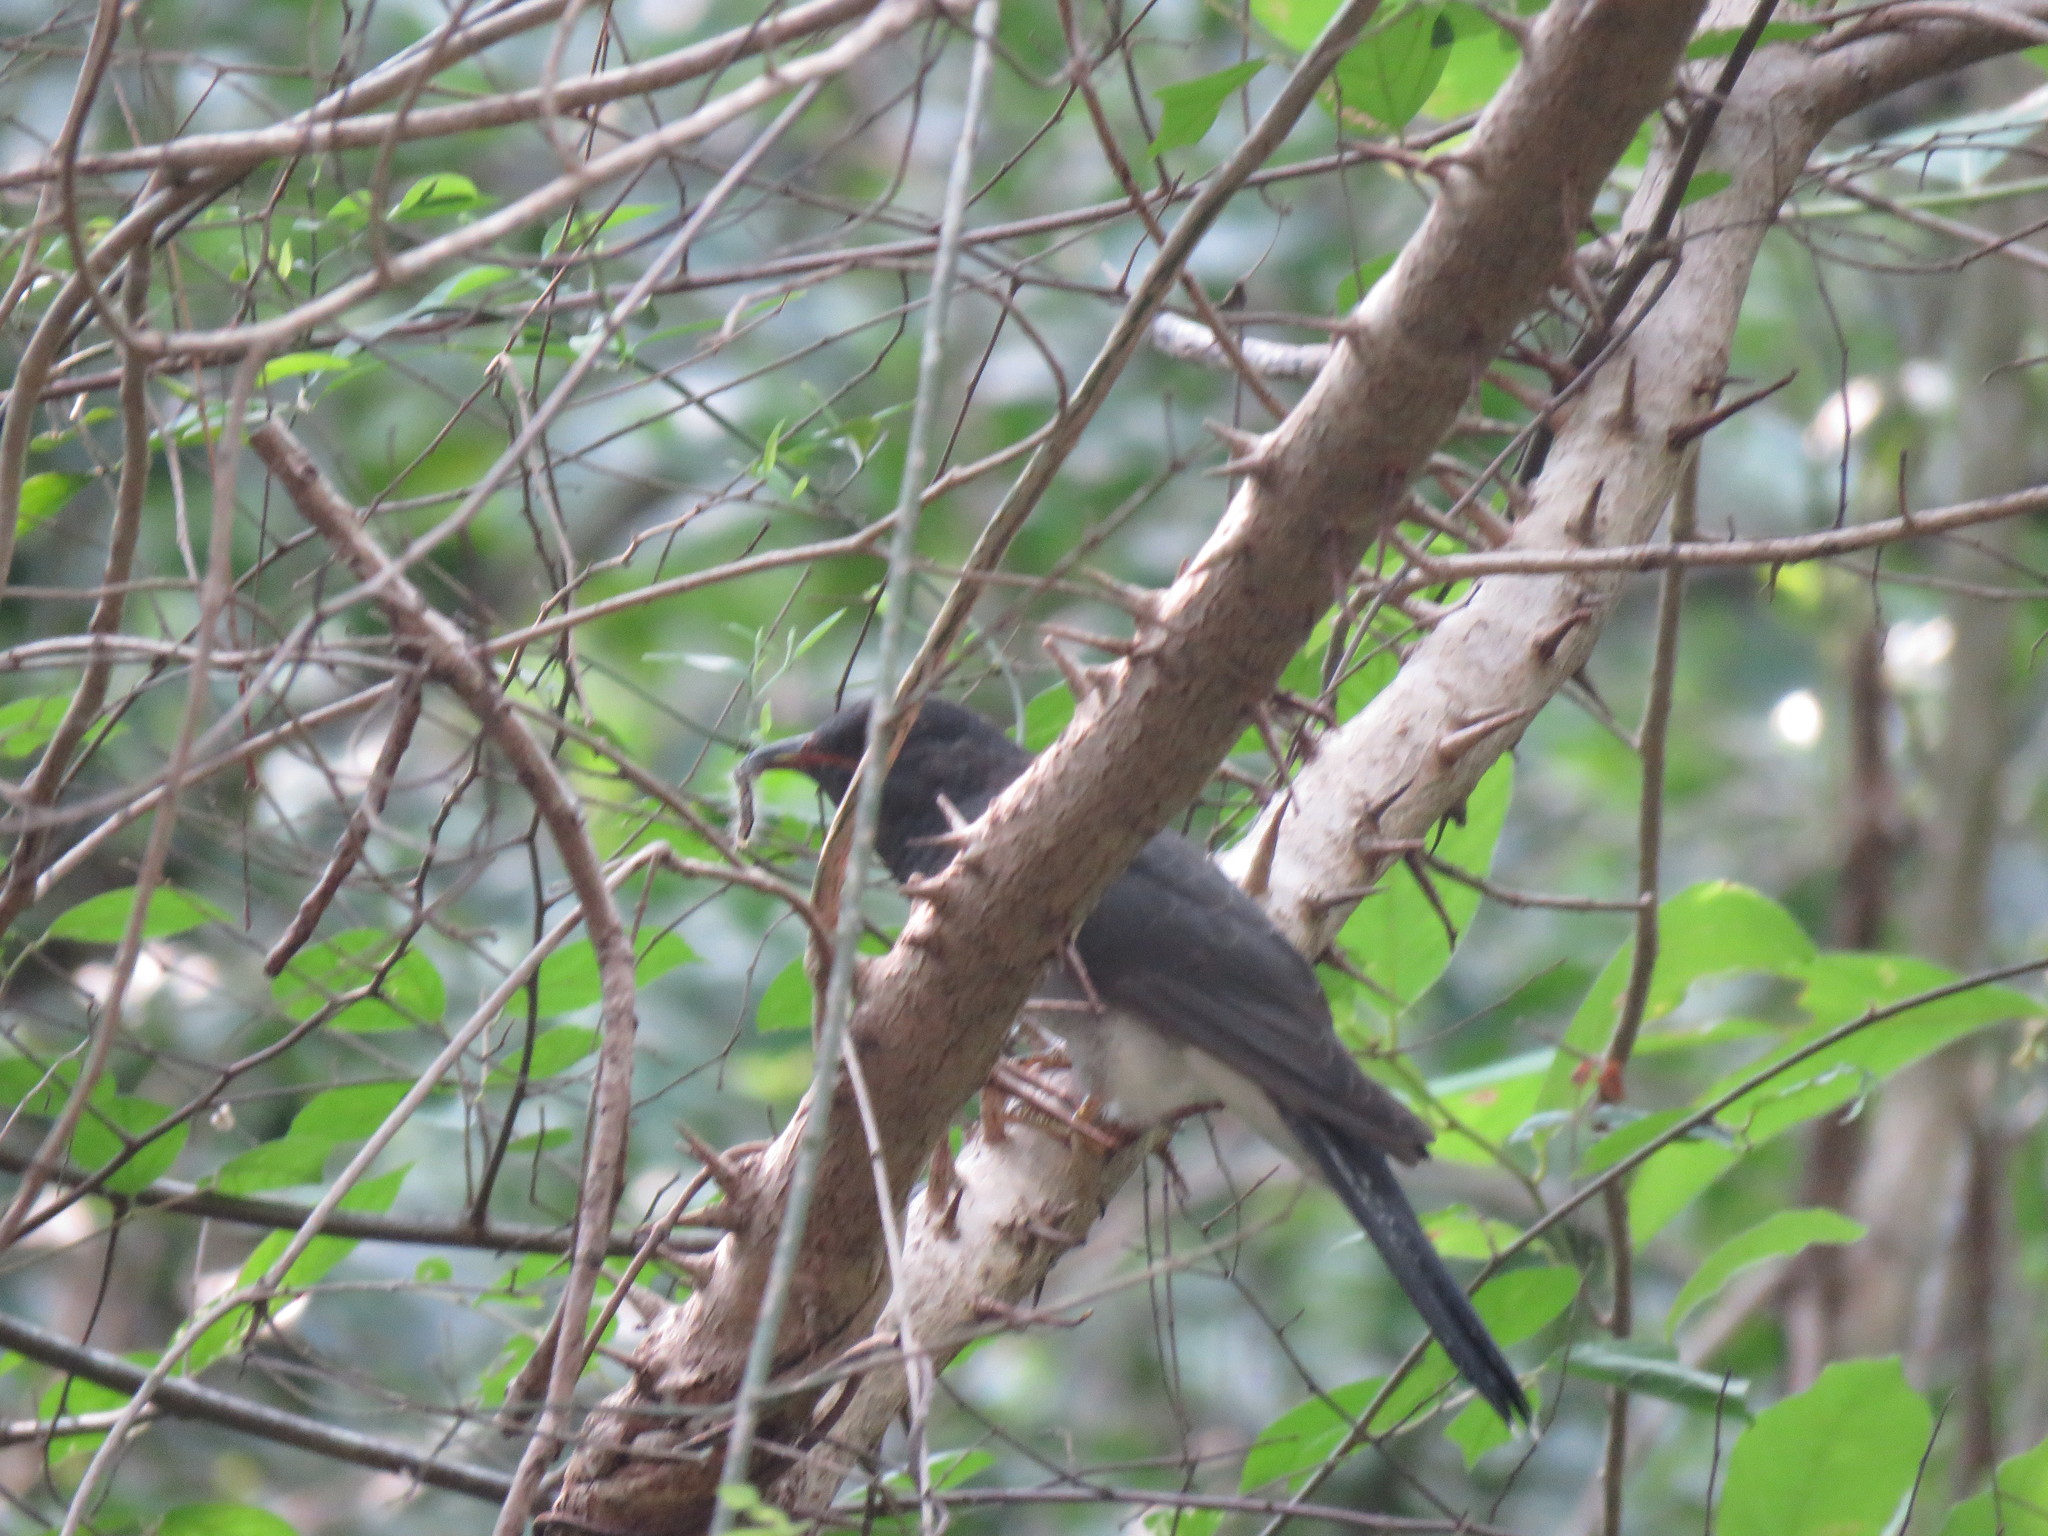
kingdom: Animalia
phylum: Chordata
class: Aves
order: Cuculiformes
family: Cuculidae
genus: Cacomantis
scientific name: Cacomantis passerinus
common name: Grey-bellied cuckoo
